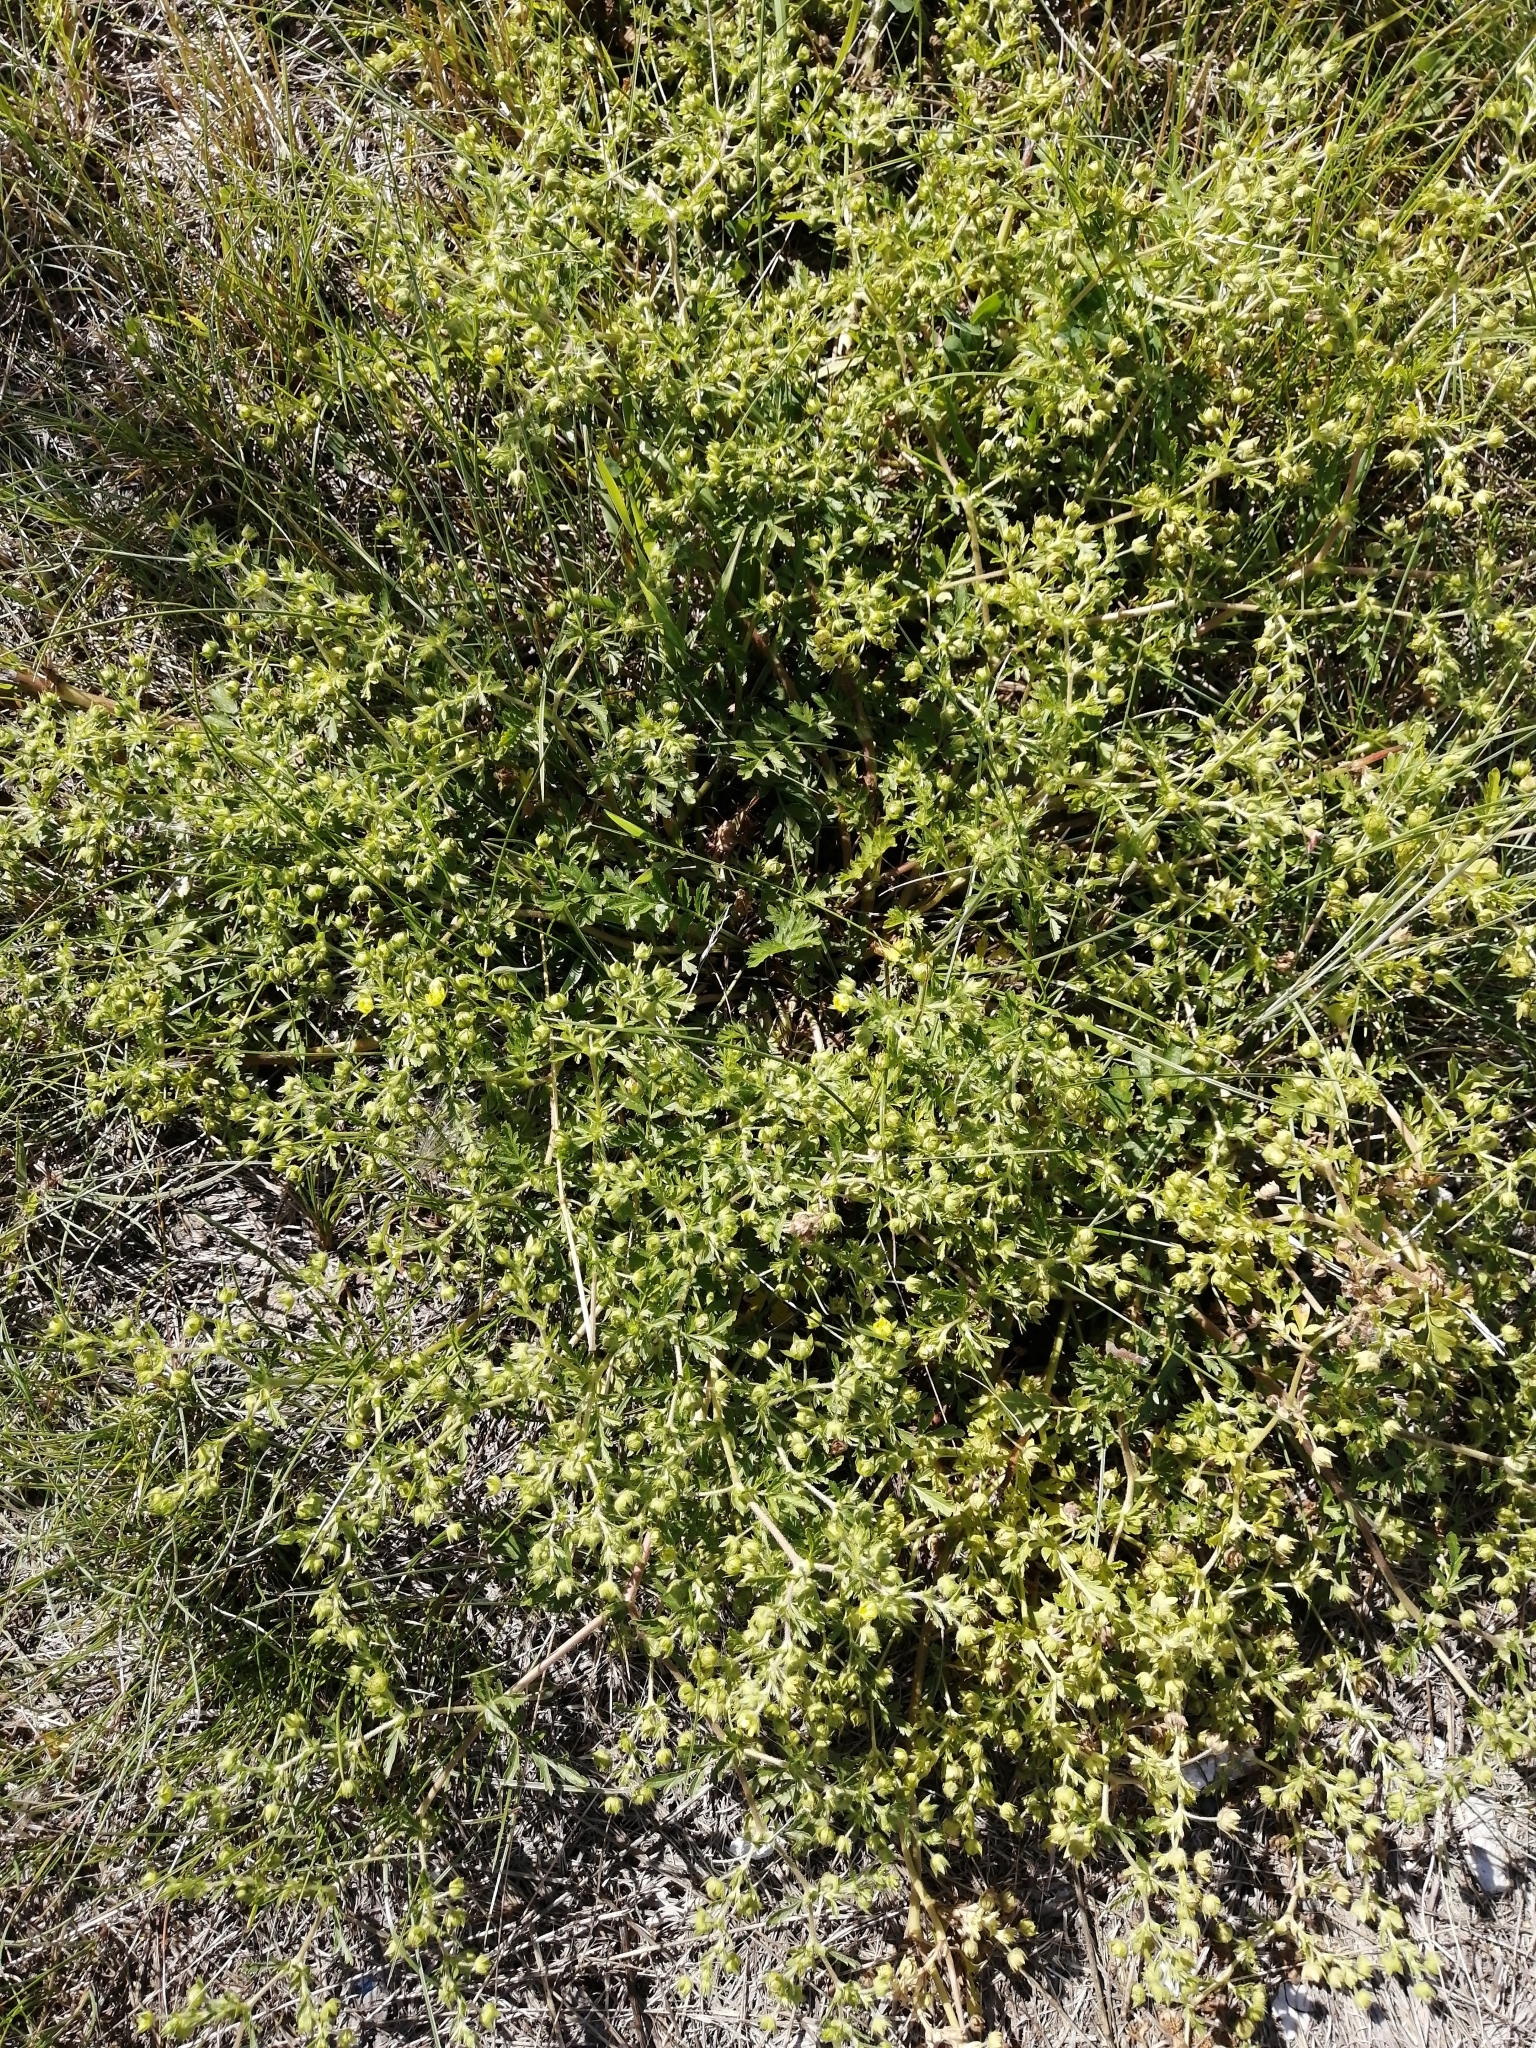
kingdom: Plantae
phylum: Tracheophyta
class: Magnoliopsida
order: Rosales
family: Rosaceae
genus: Potentilla
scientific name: Potentilla supina
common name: Prostrate cinquefoil
